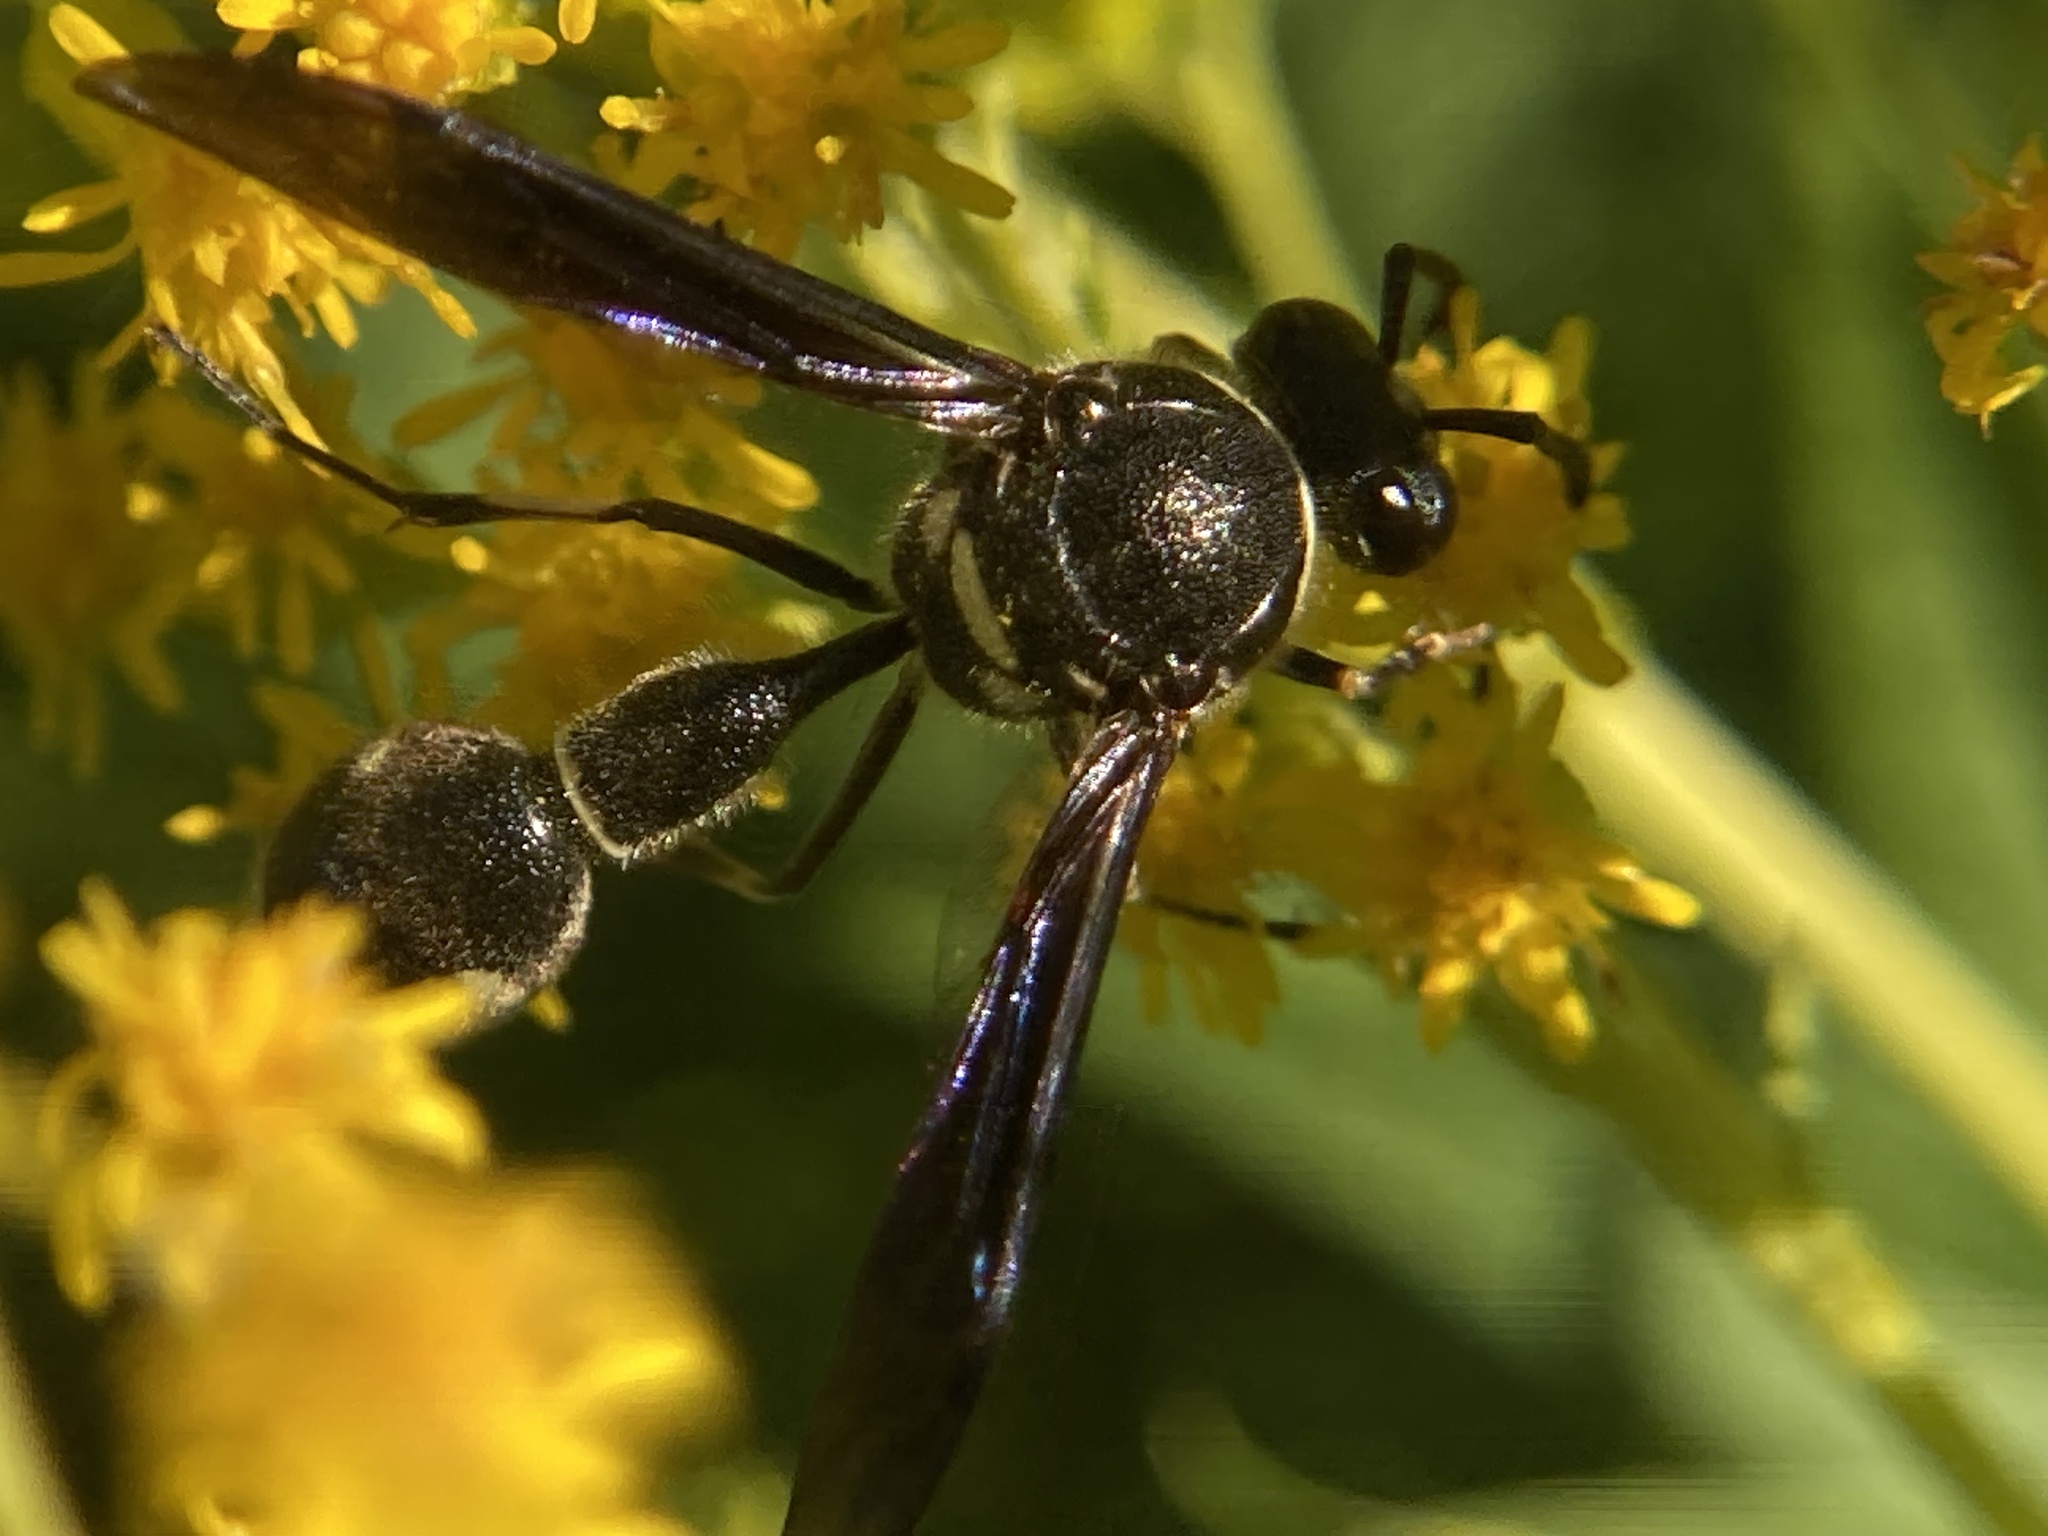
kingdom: Animalia
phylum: Arthropoda
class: Insecta
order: Hymenoptera
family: Vespidae
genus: Eumenes
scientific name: Eumenes fraternus
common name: Fraternal potter wasp
